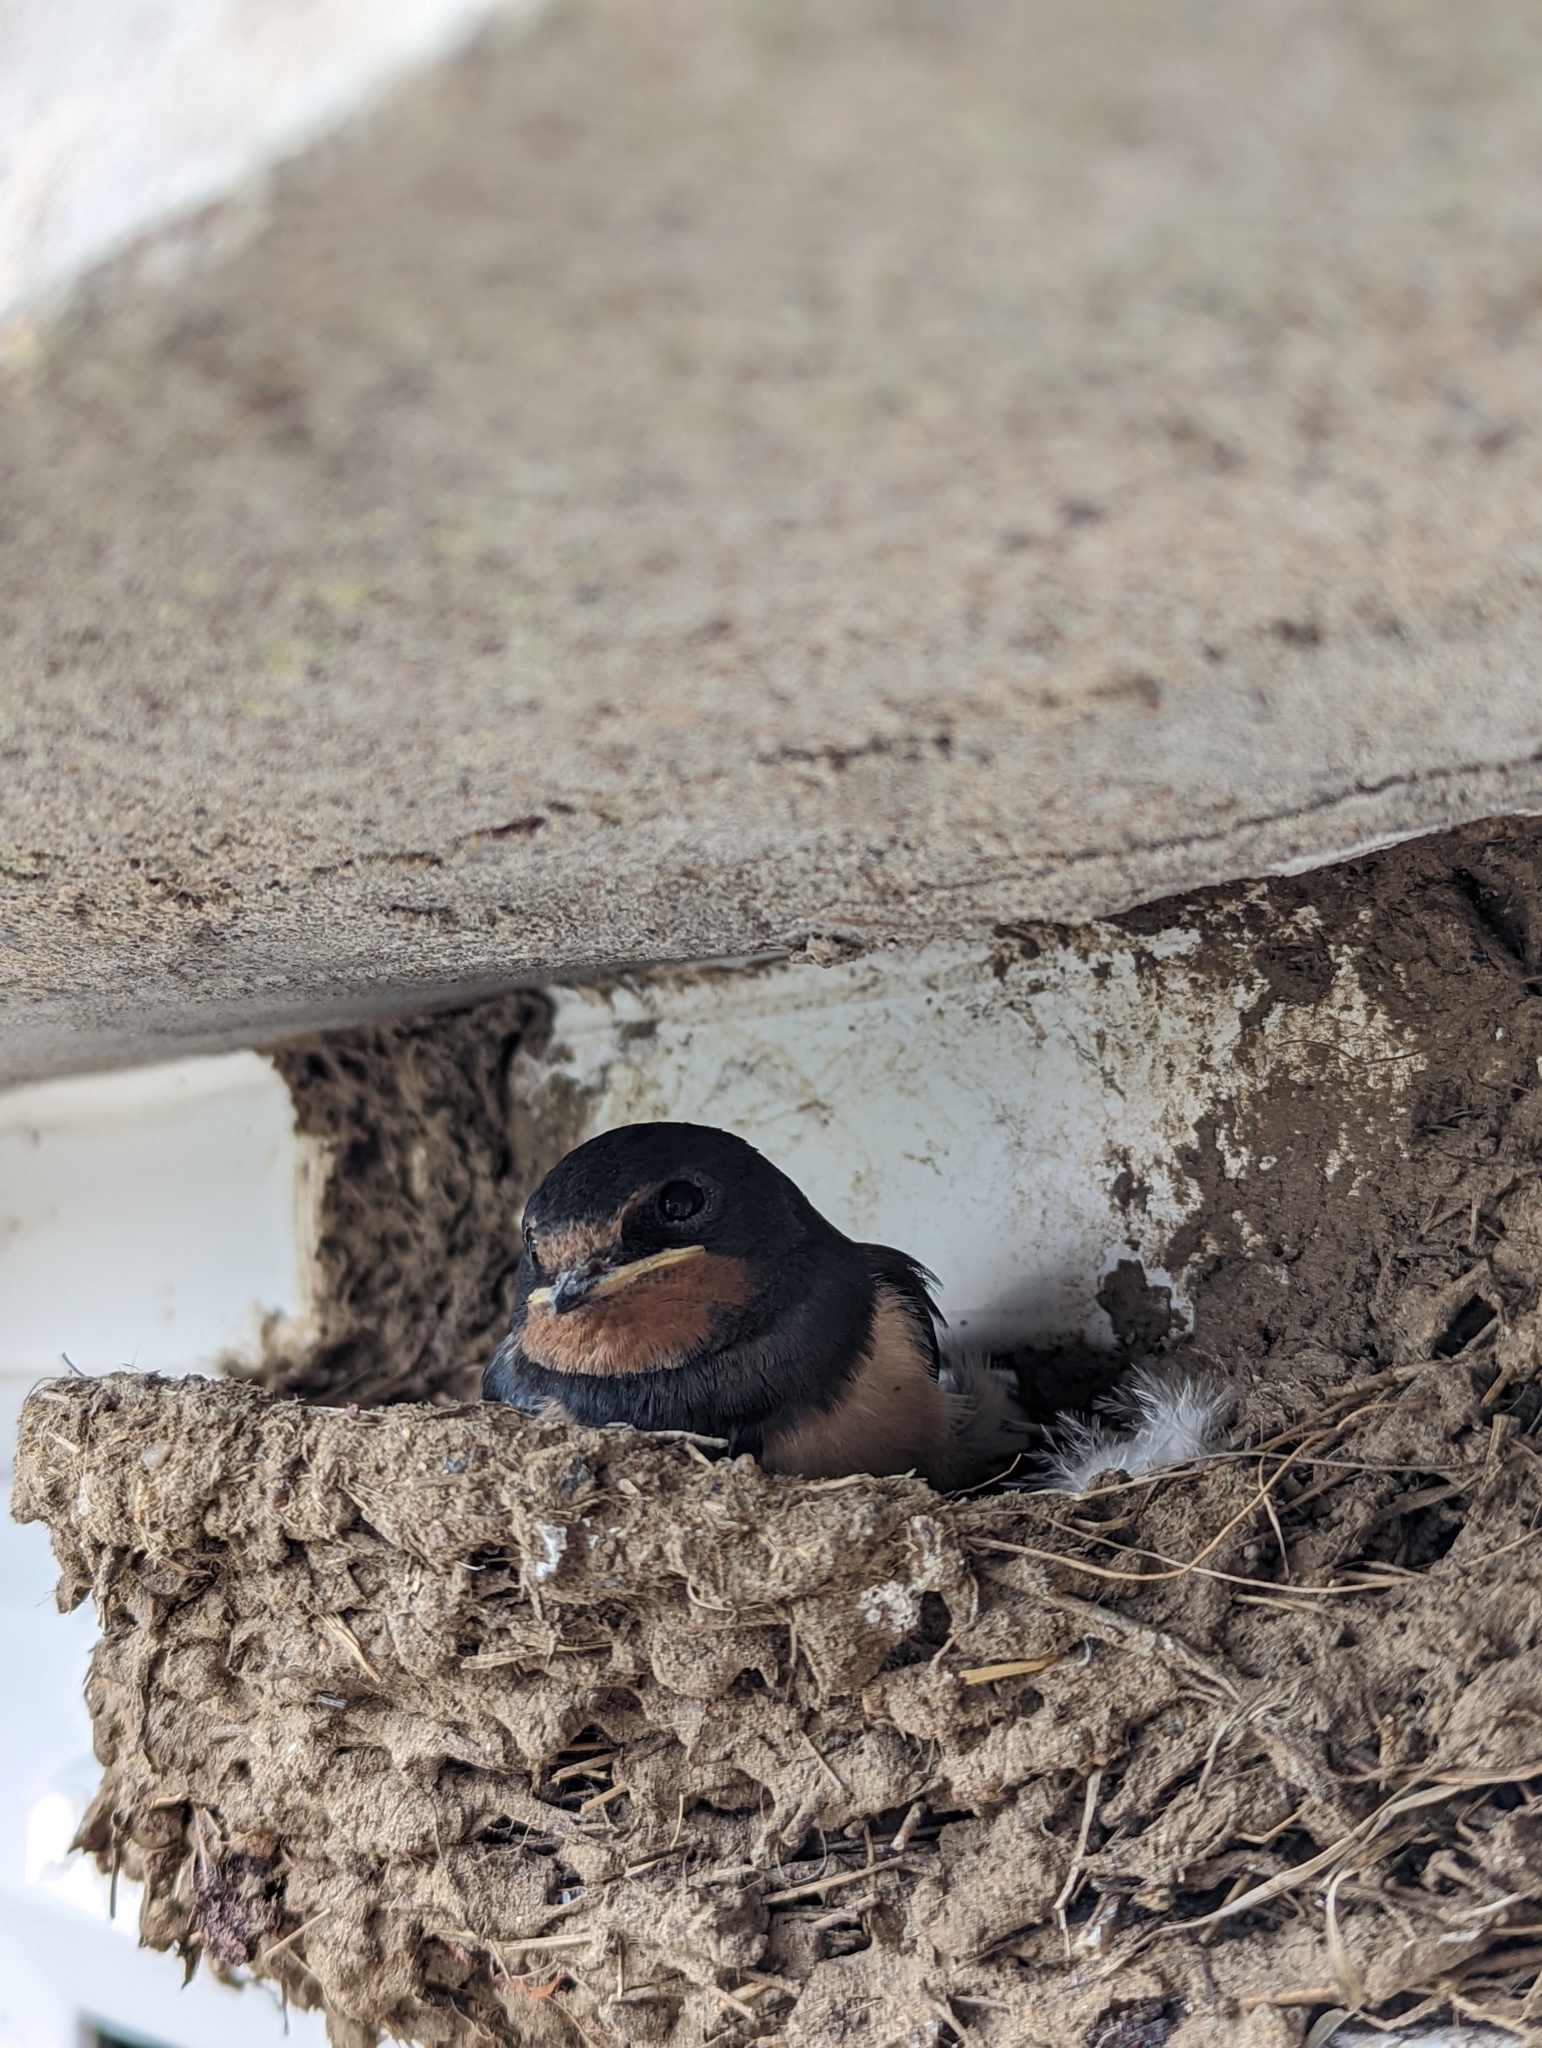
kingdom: Animalia
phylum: Chordata
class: Aves
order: Passeriformes
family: Hirundinidae
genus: Hirundo
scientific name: Hirundo rustica
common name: Barn swallow
